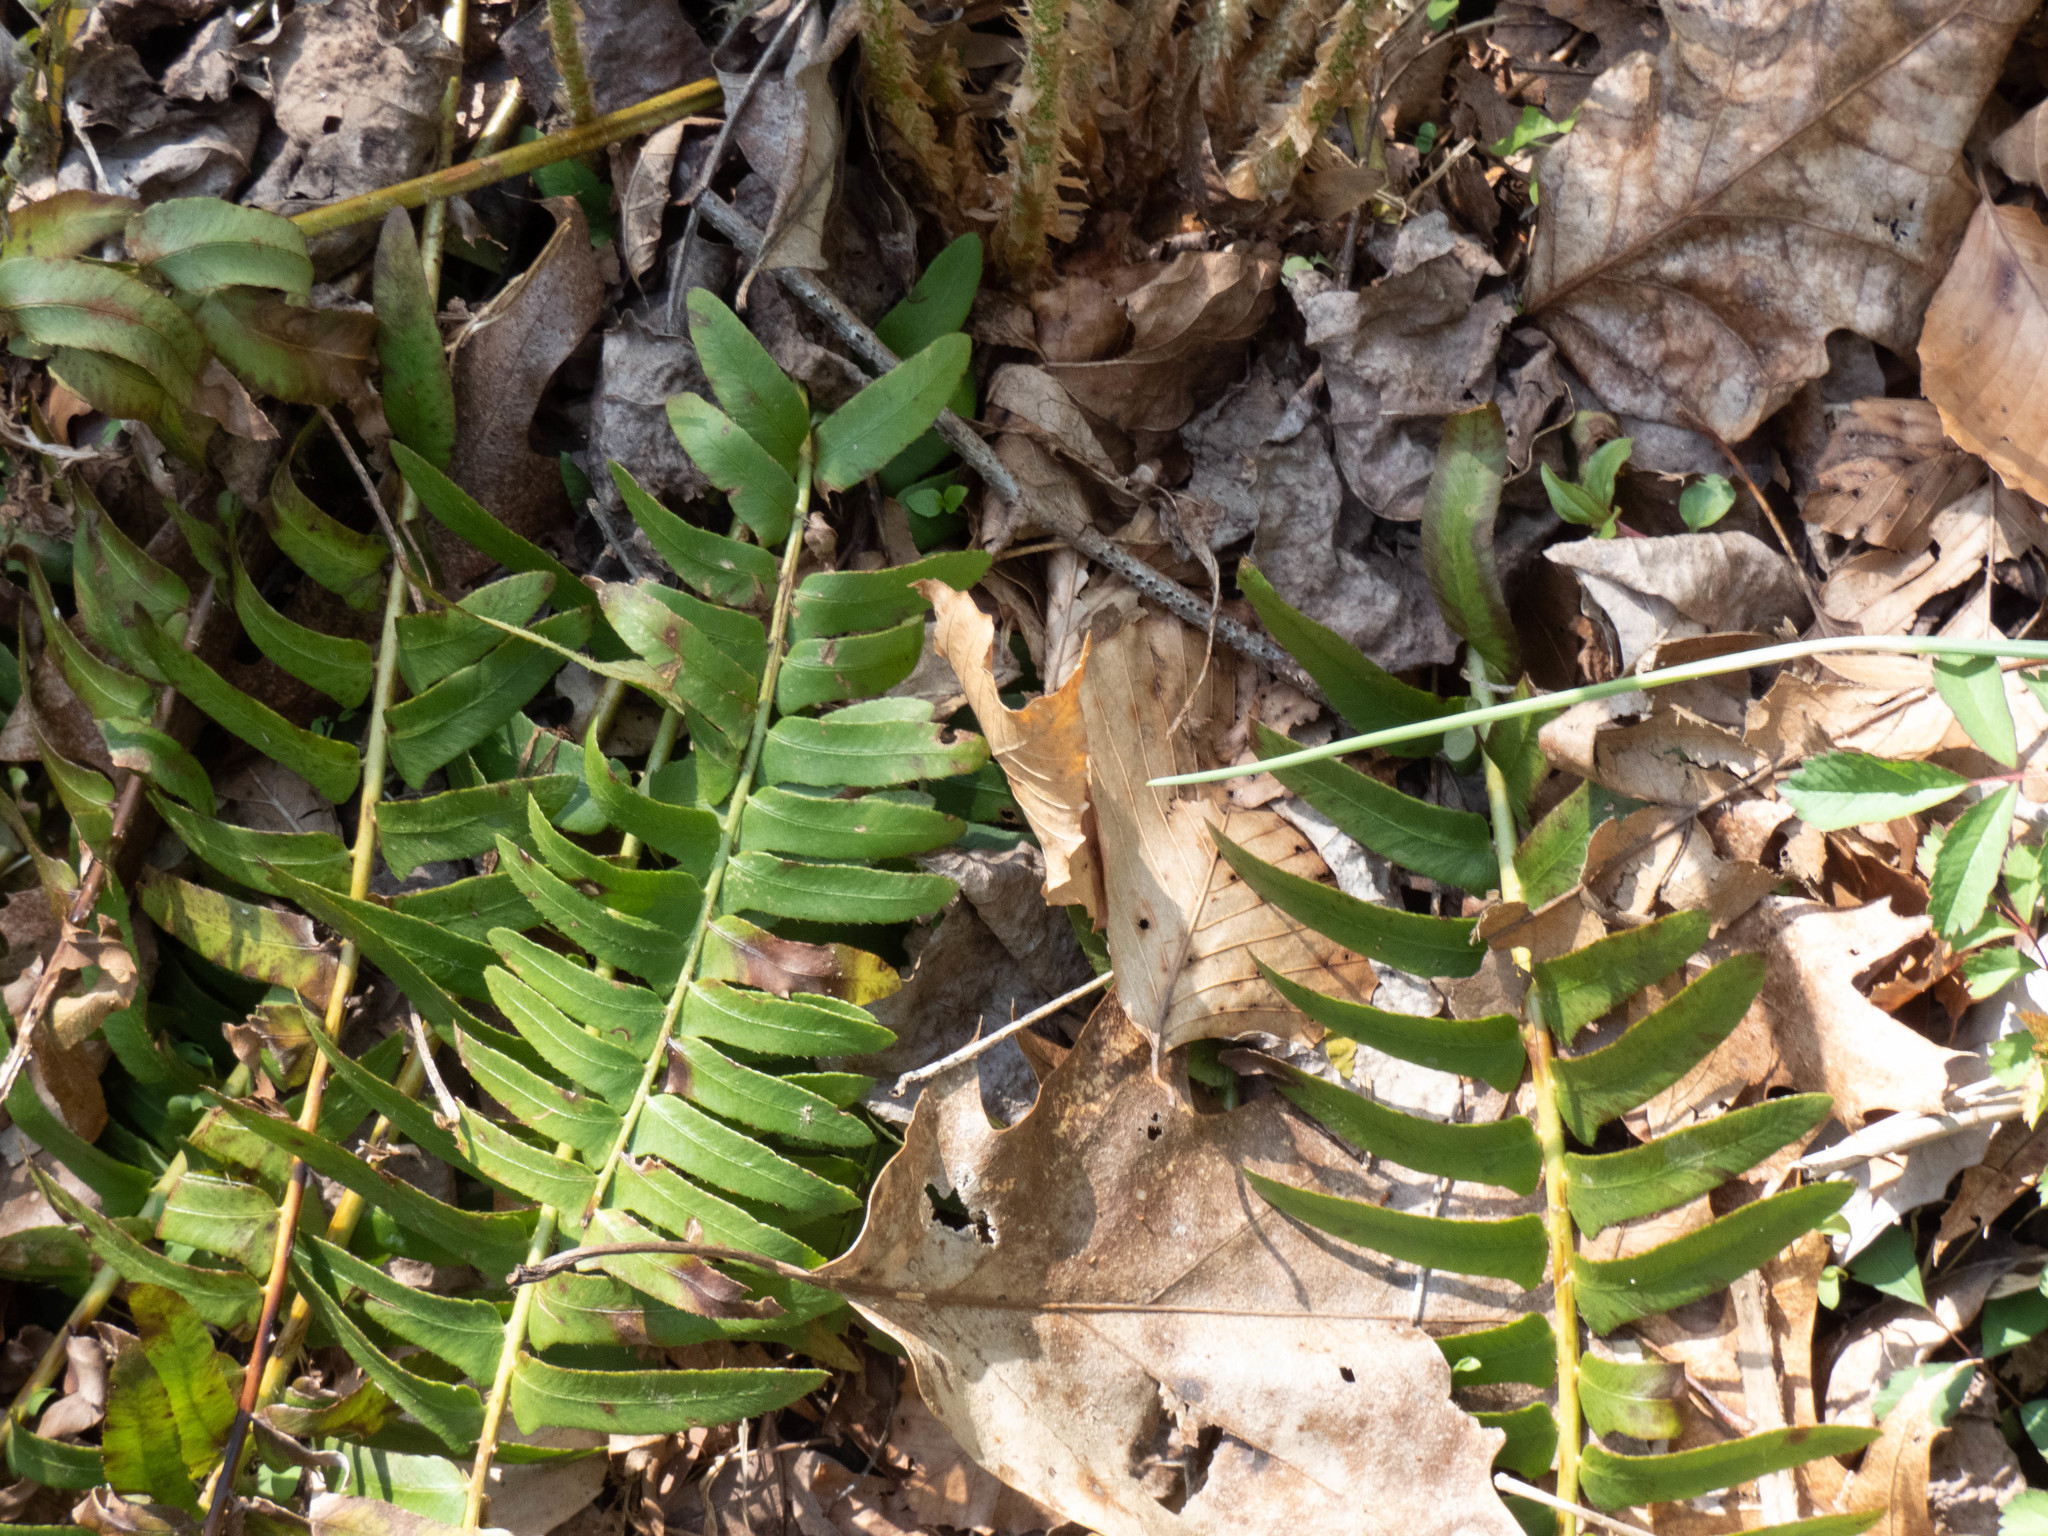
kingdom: Plantae
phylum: Tracheophyta
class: Polypodiopsida
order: Polypodiales
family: Dryopteridaceae
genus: Polystichum
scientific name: Polystichum acrostichoides
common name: Christmas fern
